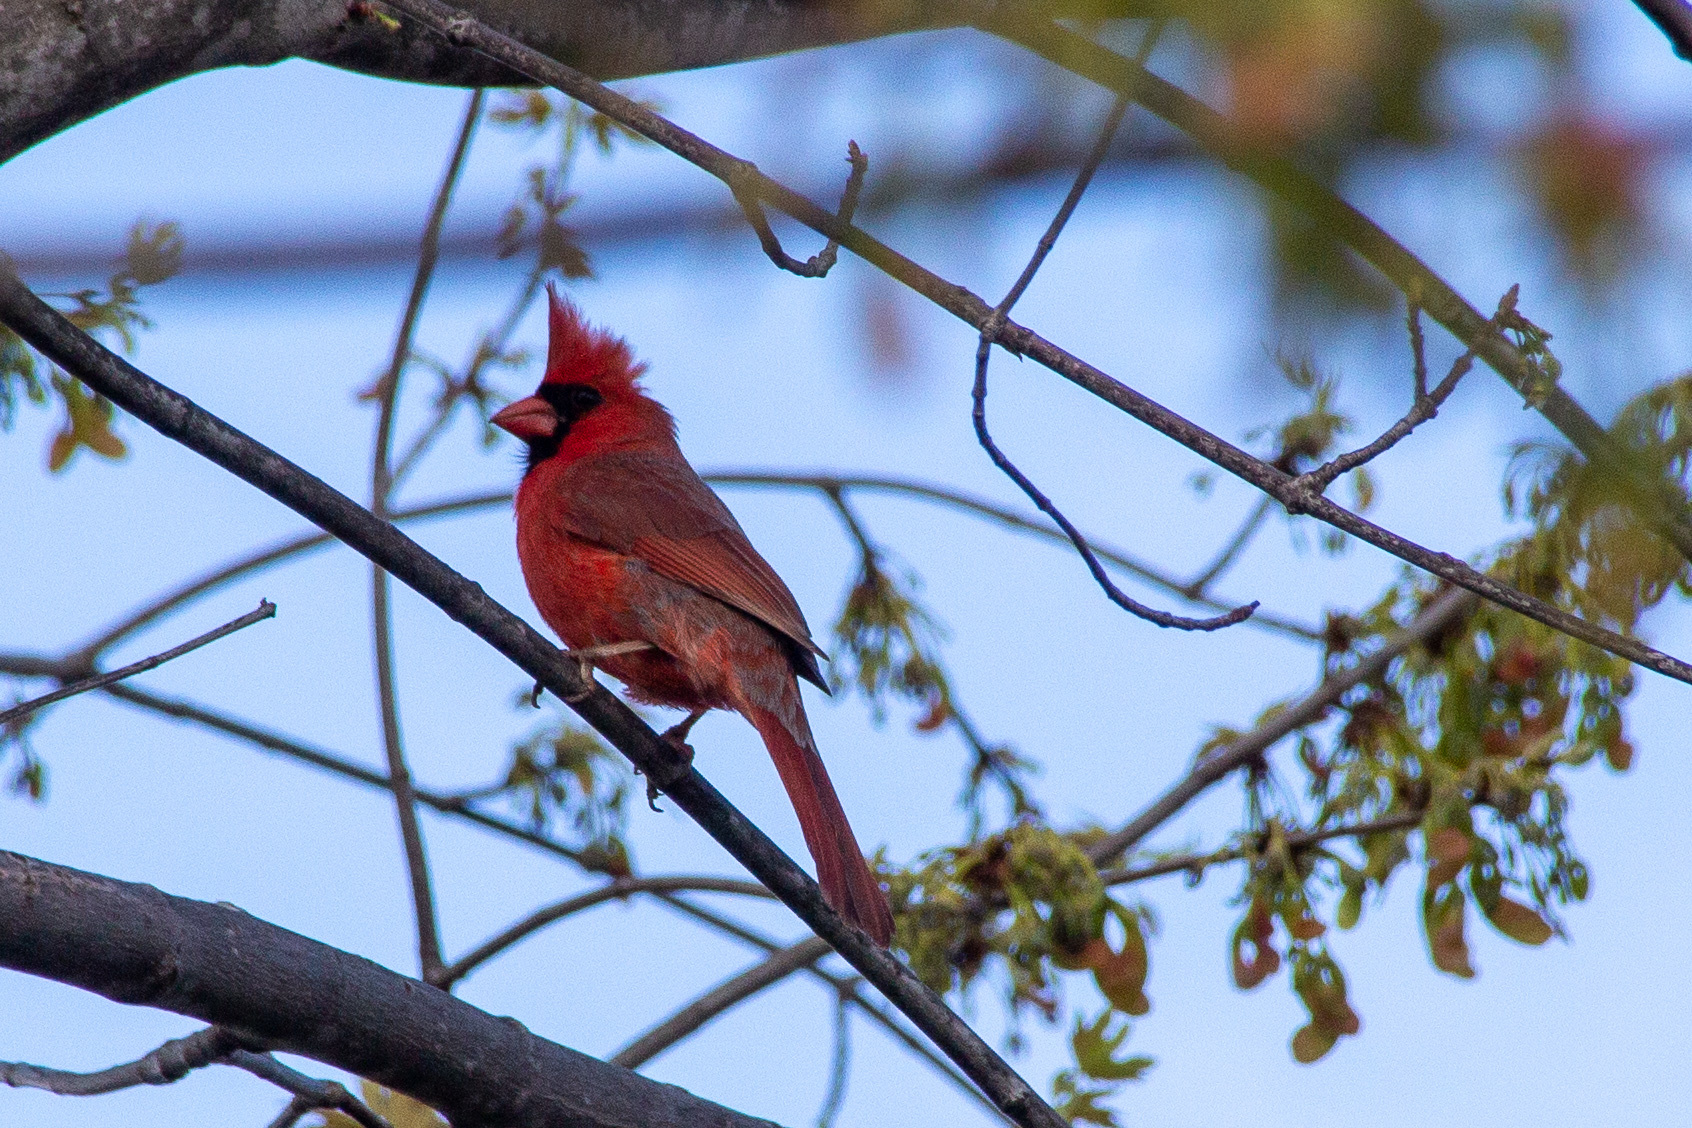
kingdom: Animalia
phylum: Chordata
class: Aves
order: Passeriformes
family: Cardinalidae
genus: Cardinalis
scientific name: Cardinalis cardinalis
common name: Northern cardinal
